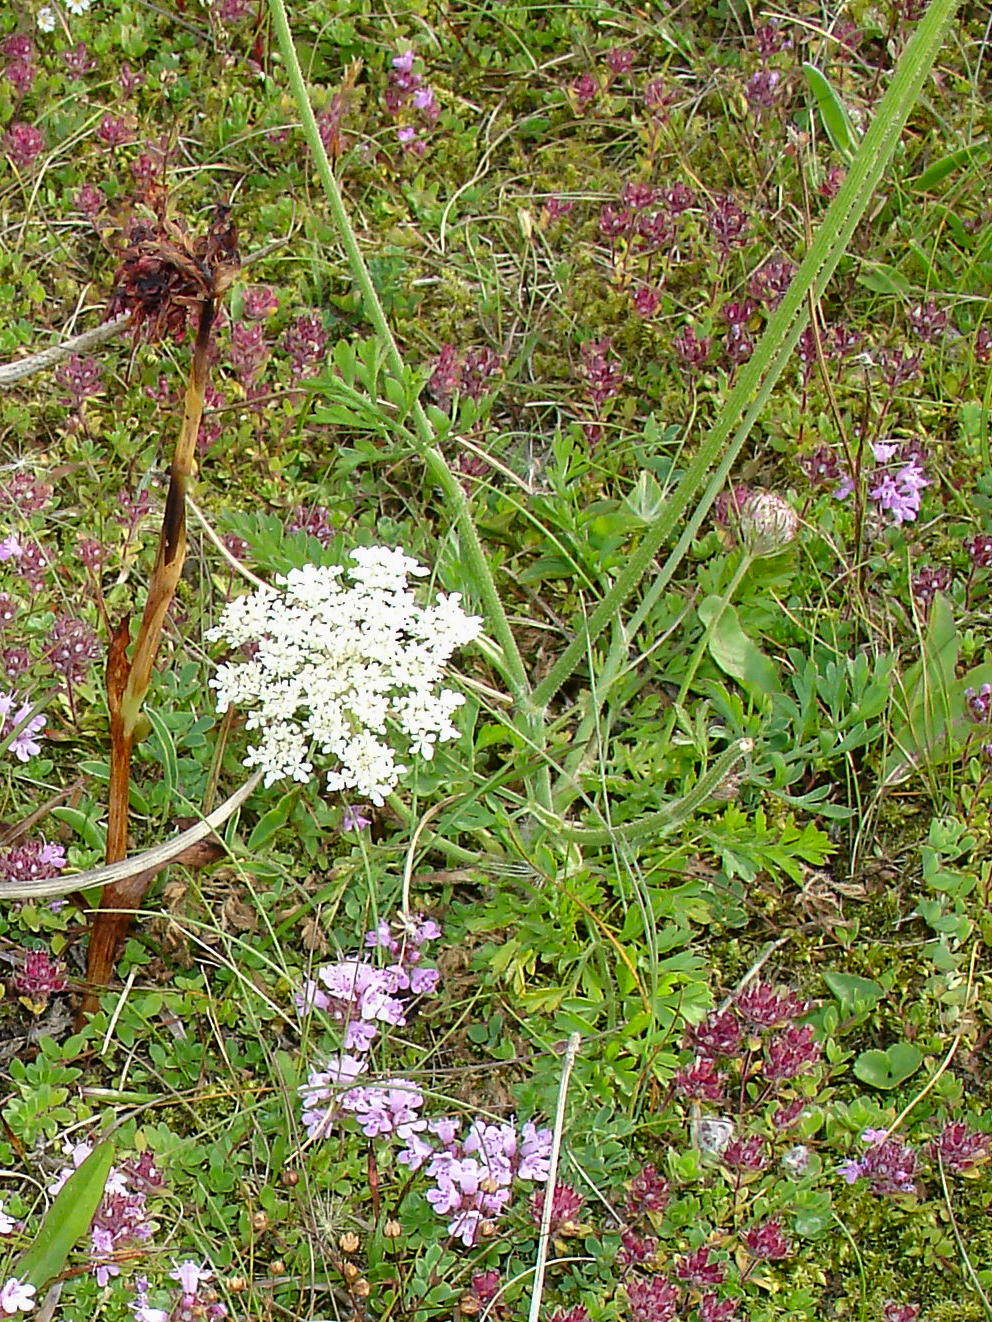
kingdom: Plantae
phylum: Tracheophyta
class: Magnoliopsida
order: Apiales
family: Apiaceae
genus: Daucus
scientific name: Daucus carota
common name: Wild carrot
